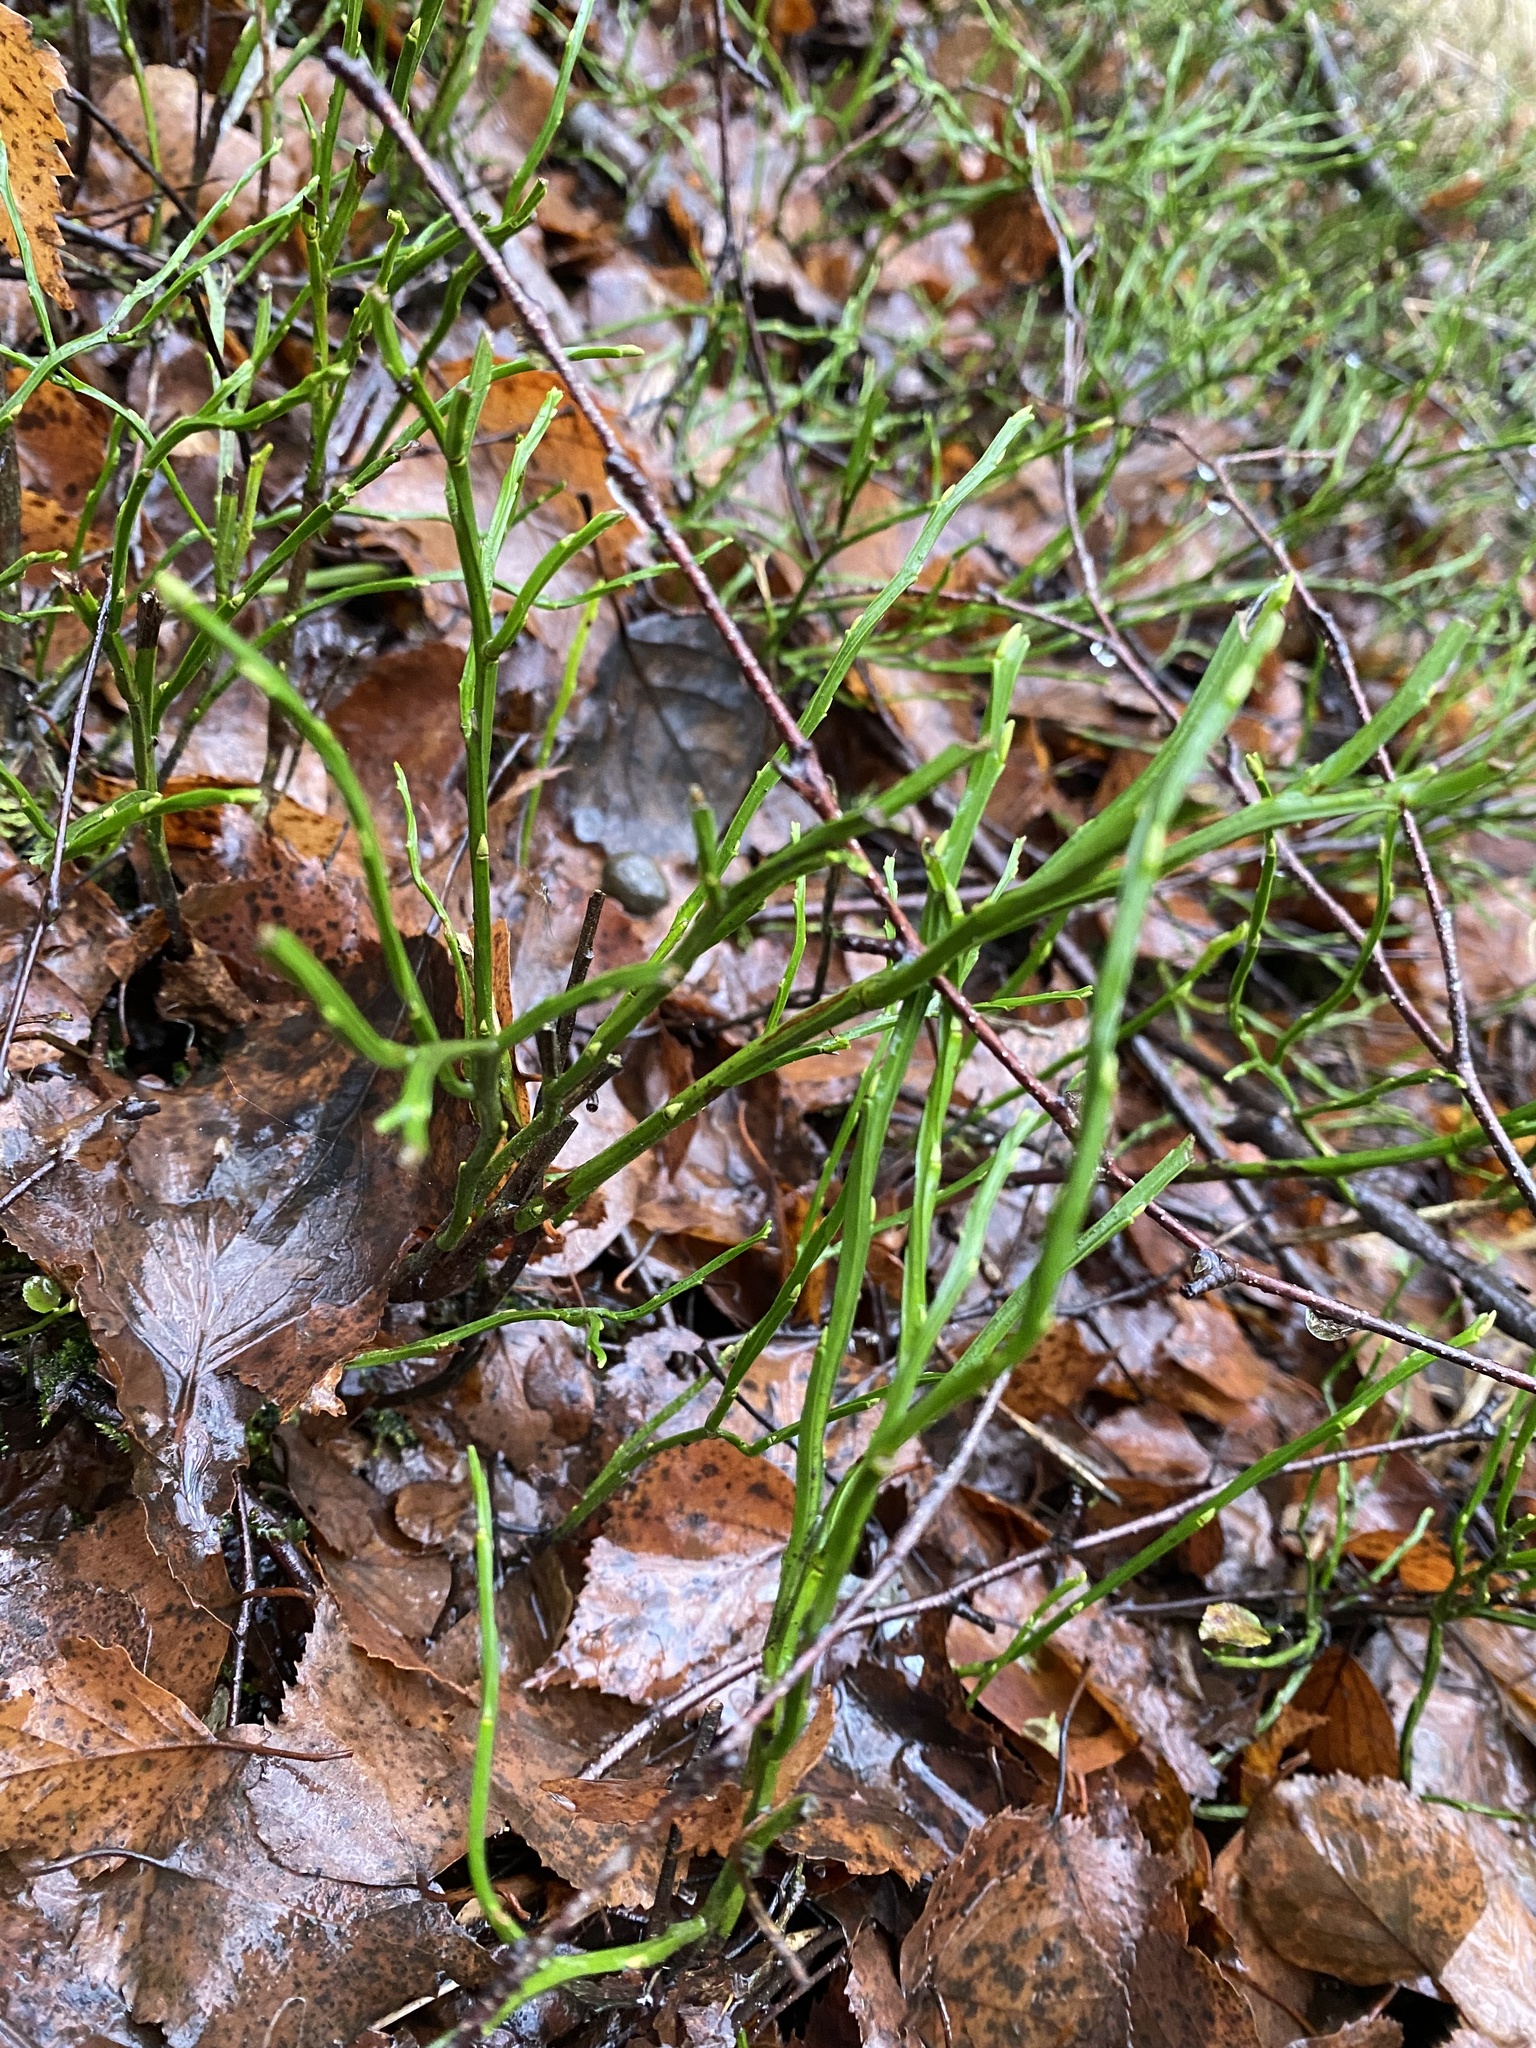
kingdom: Plantae
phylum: Tracheophyta
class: Magnoliopsida
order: Ericales
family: Ericaceae
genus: Vaccinium
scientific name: Vaccinium myrtillus
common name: Bilberry
